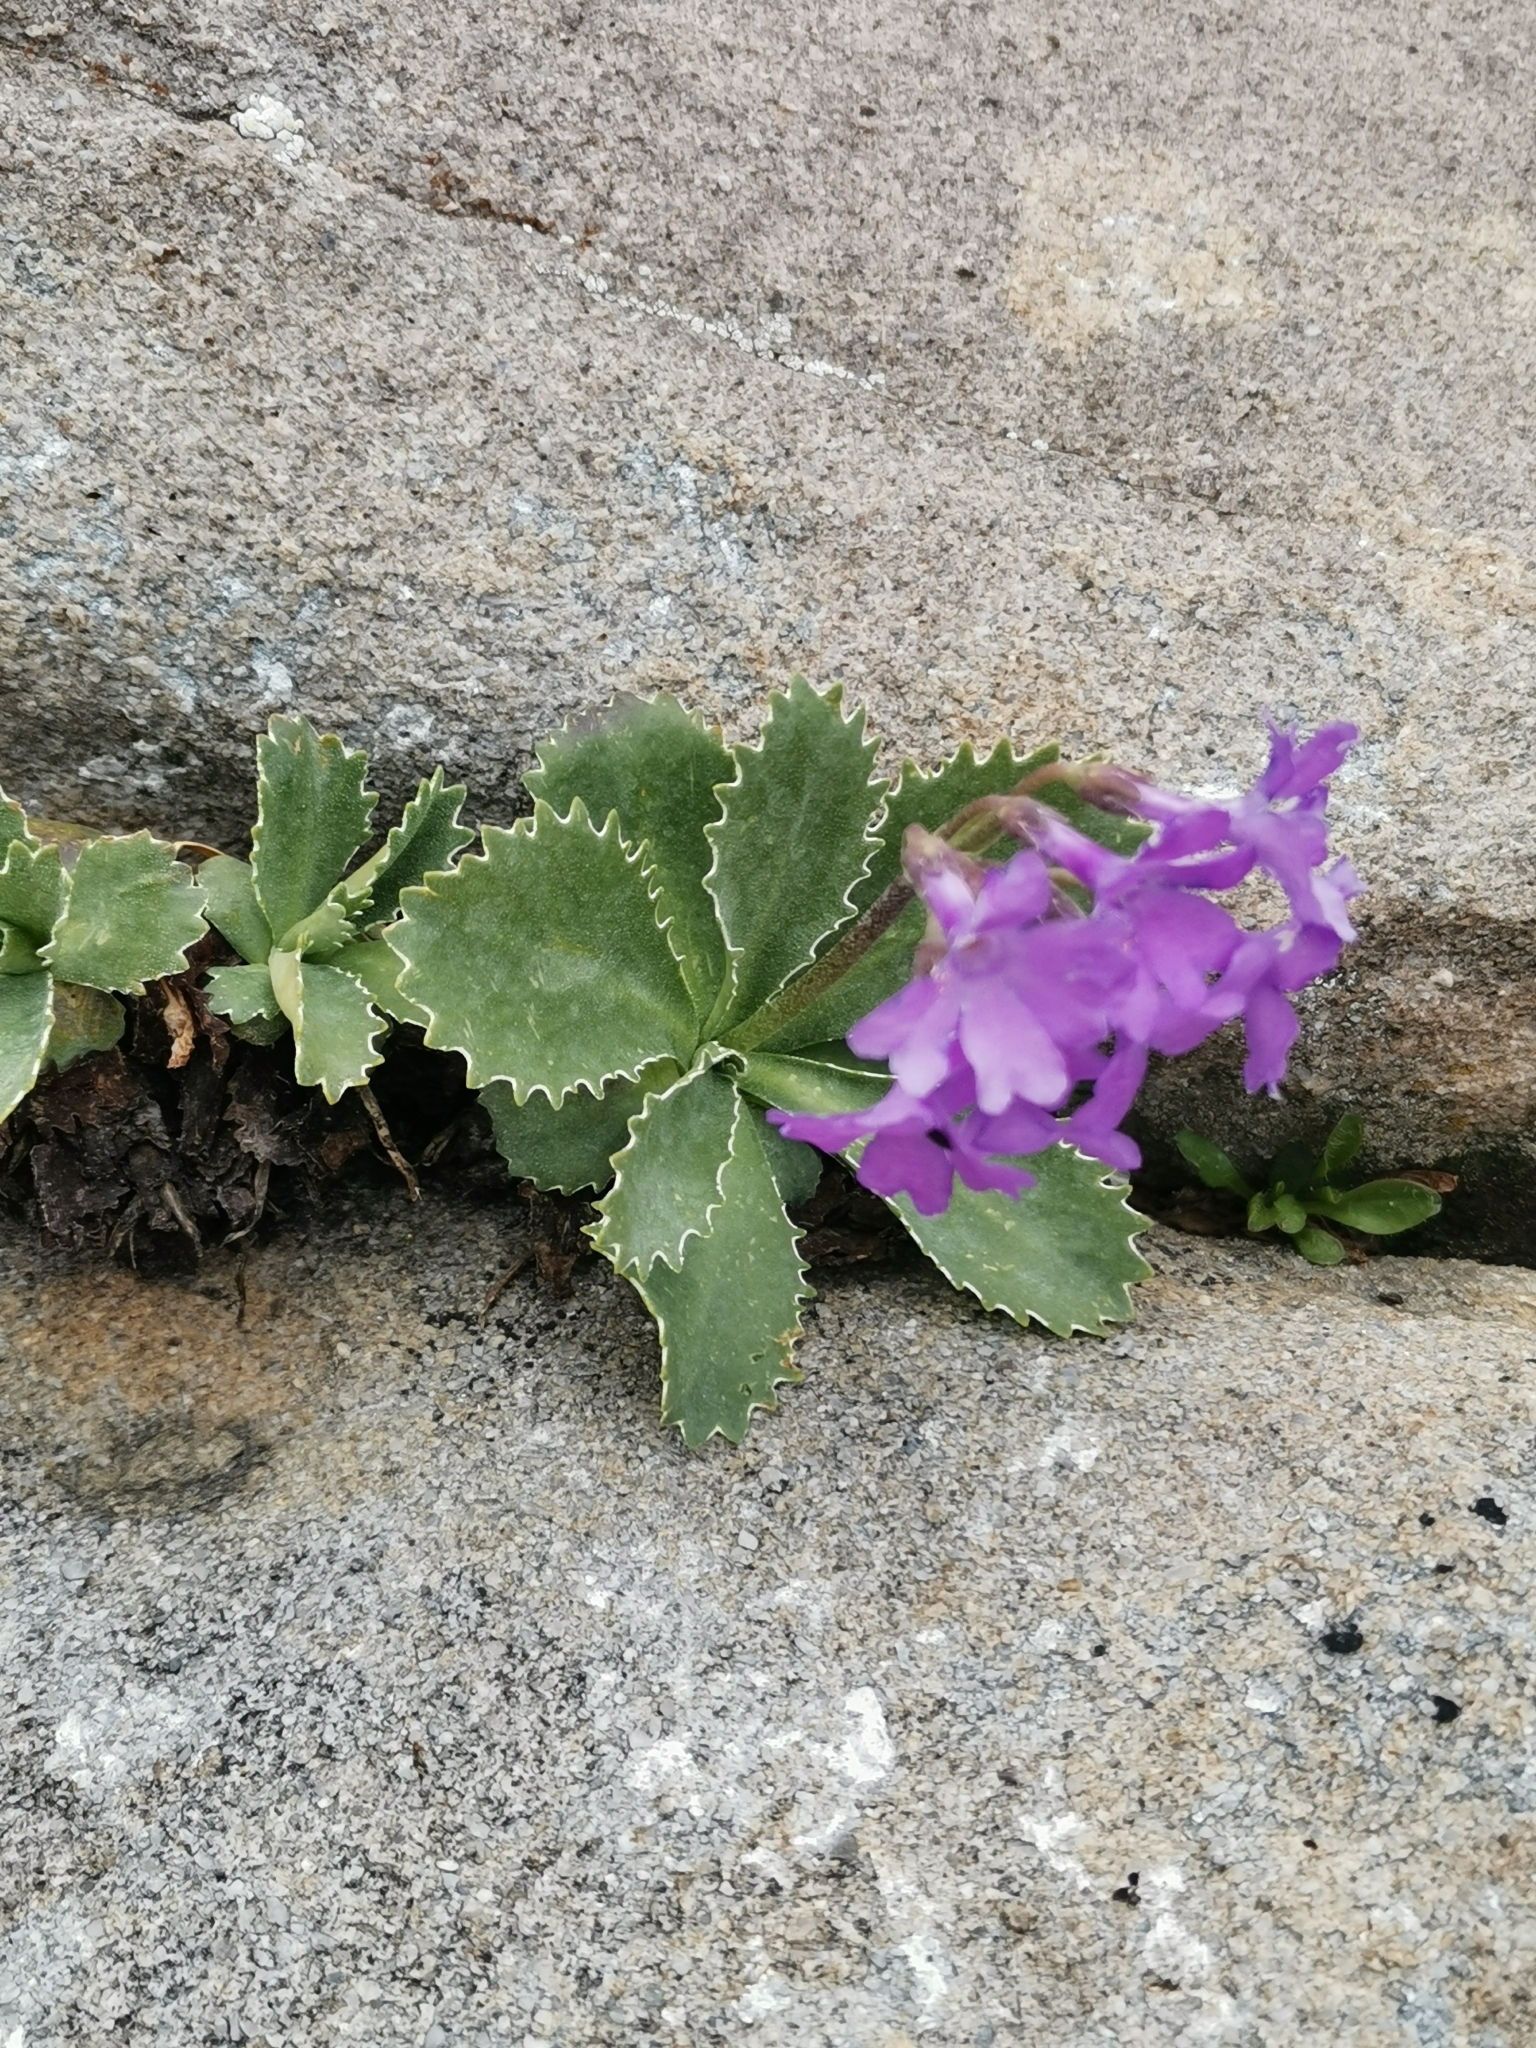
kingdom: Plantae
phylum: Tracheophyta
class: Magnoliopsida
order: Ericales
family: Primulaceae
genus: Primula
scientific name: Primula marginata
